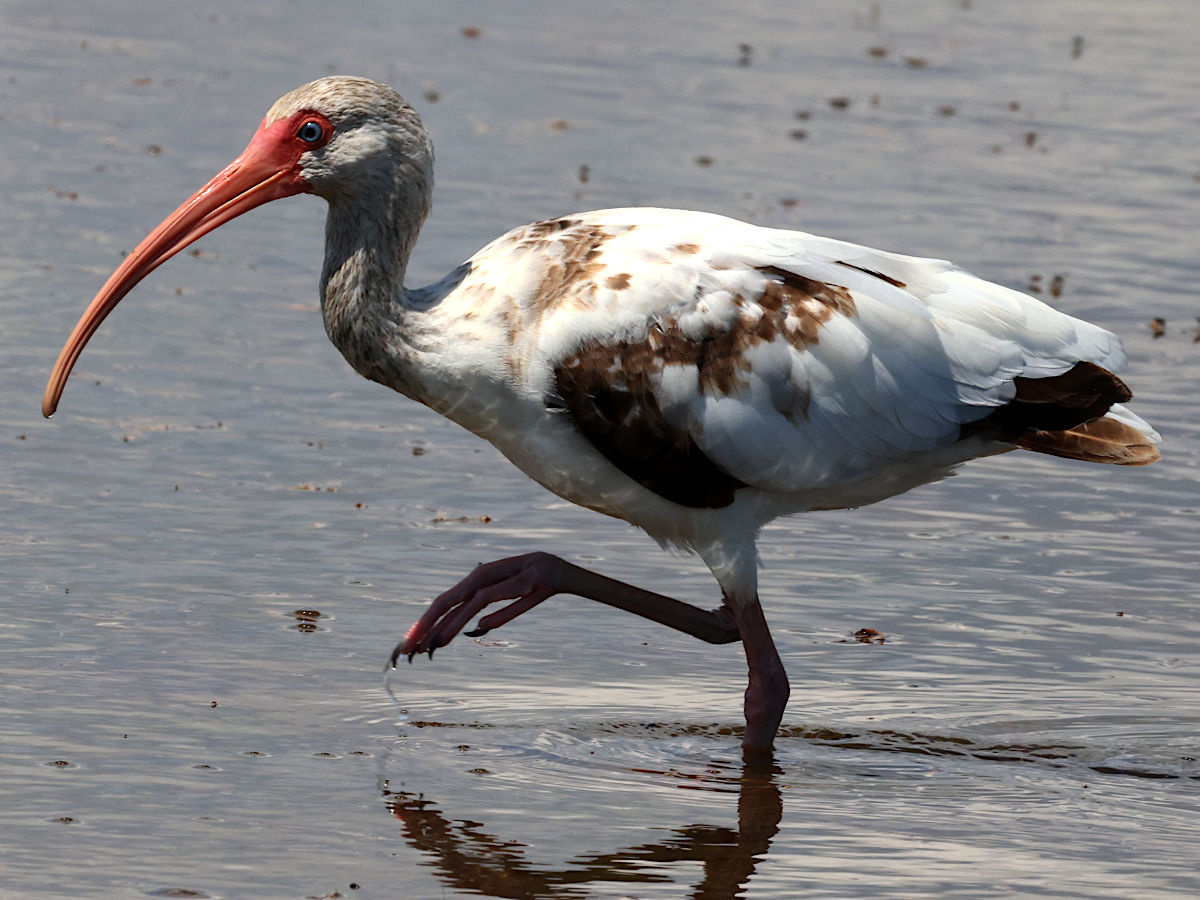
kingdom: Animalia
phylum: Chordata
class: Aves
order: Pelecaniformes
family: Threskiornithidae
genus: Eudocimus
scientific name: Eudocimus albus
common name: White ibis
